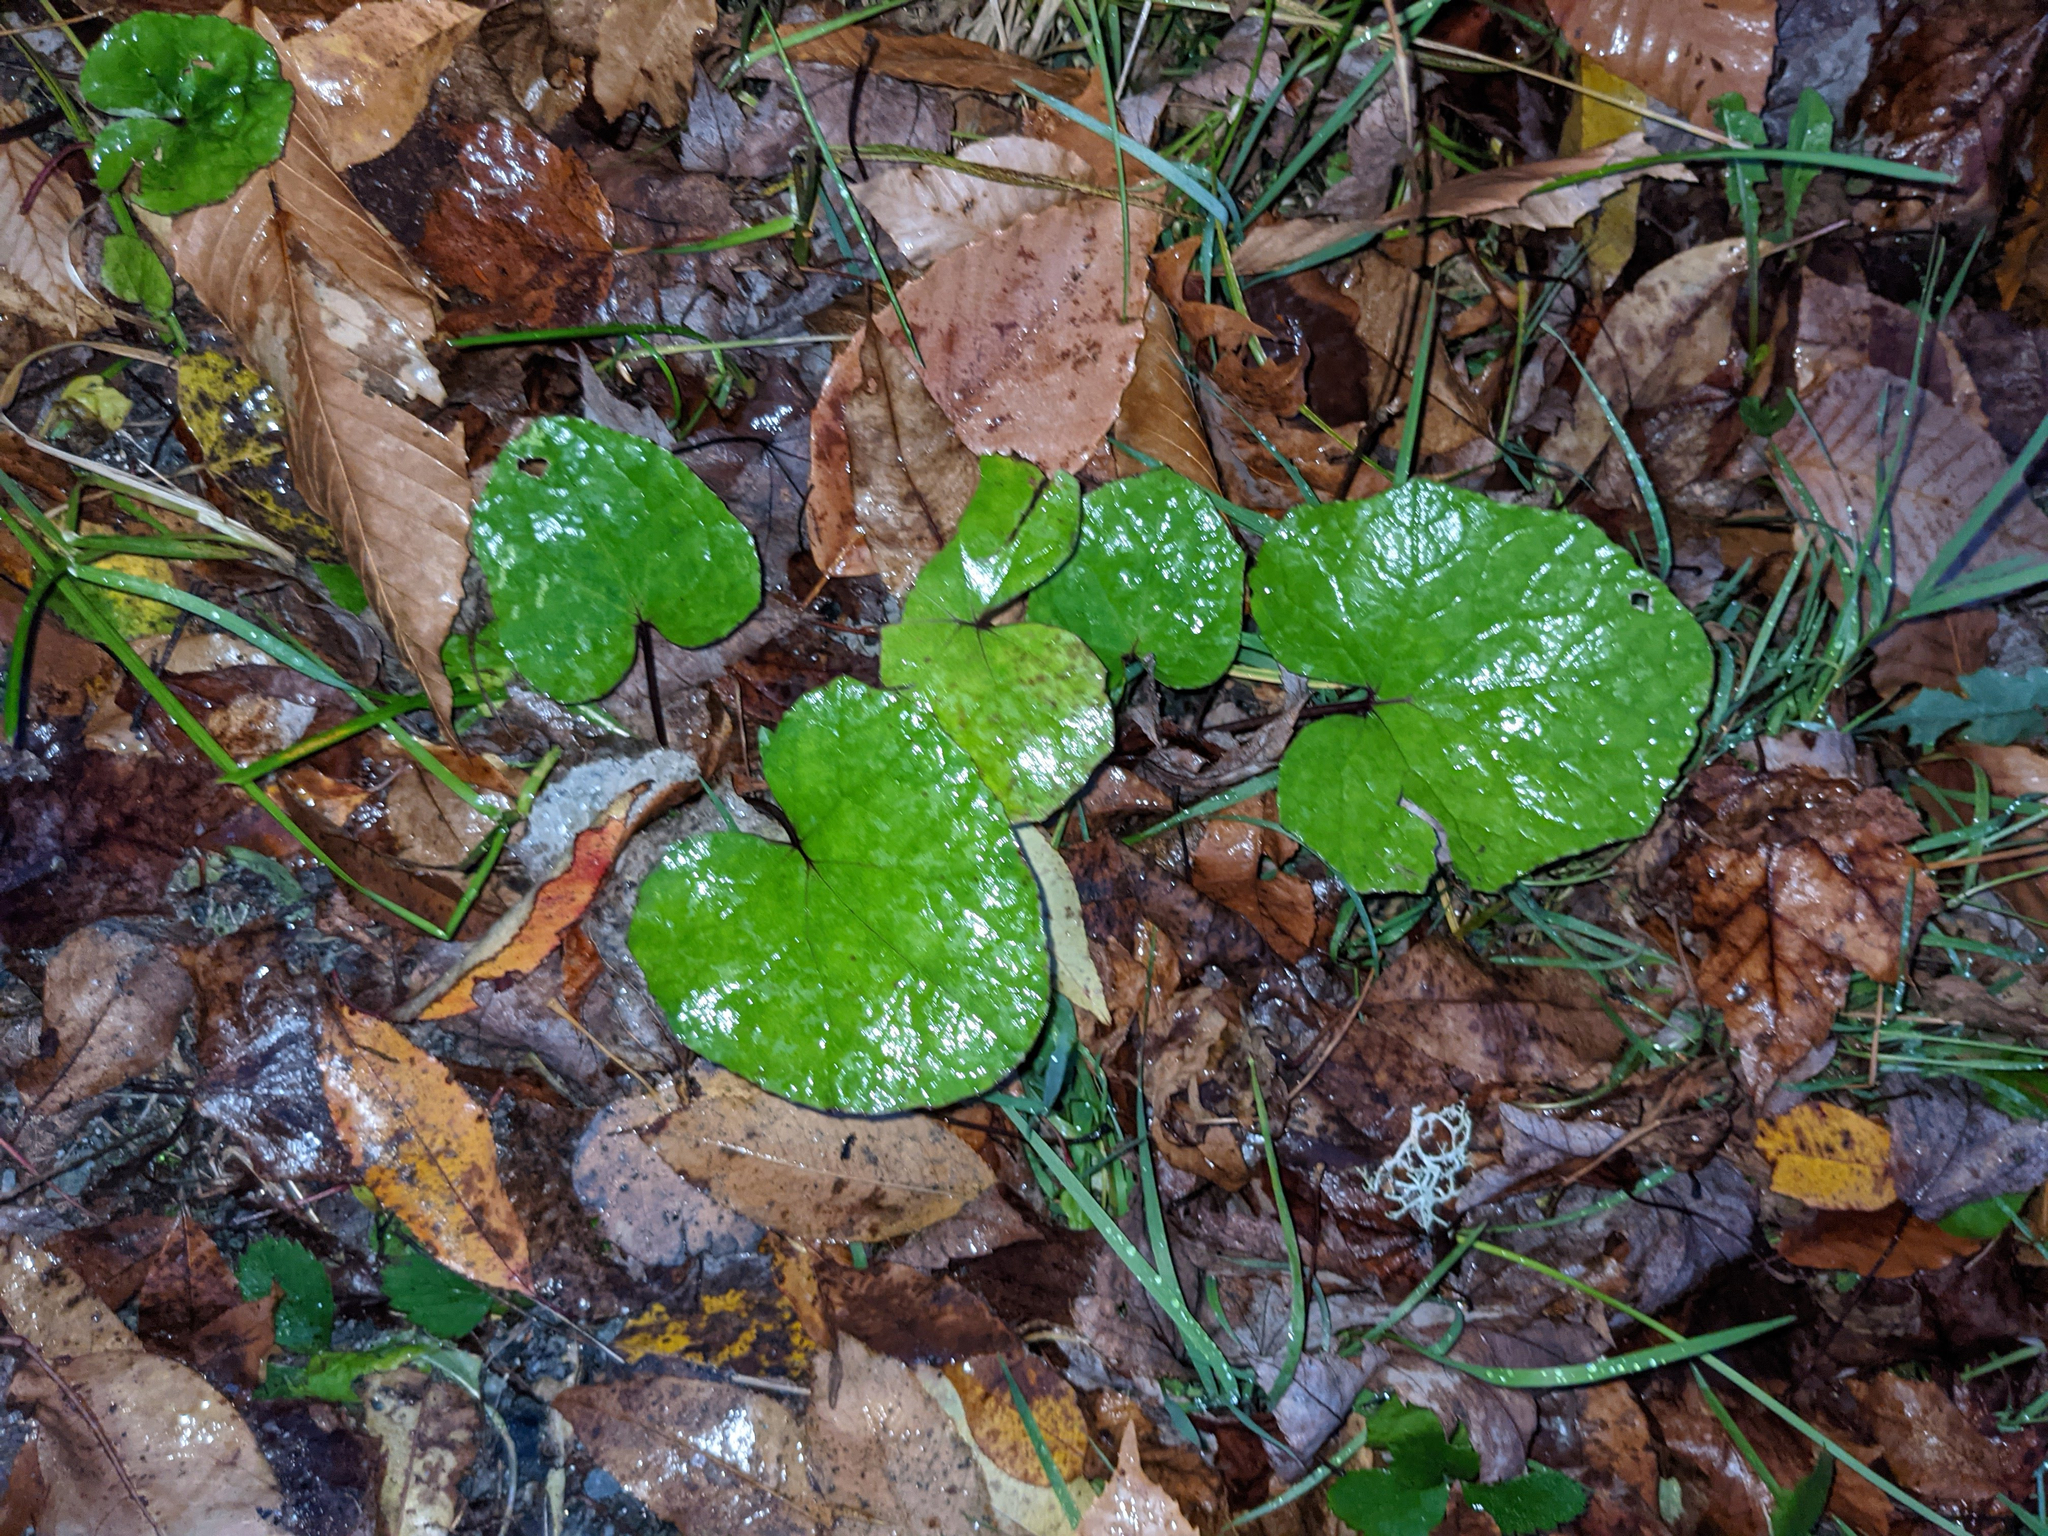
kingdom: Plantae
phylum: Tracheophyta
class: Magnoliopsida
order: Fagales
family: Fagaceae
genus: Fagus
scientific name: Fagus grandifolia
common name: American beech
